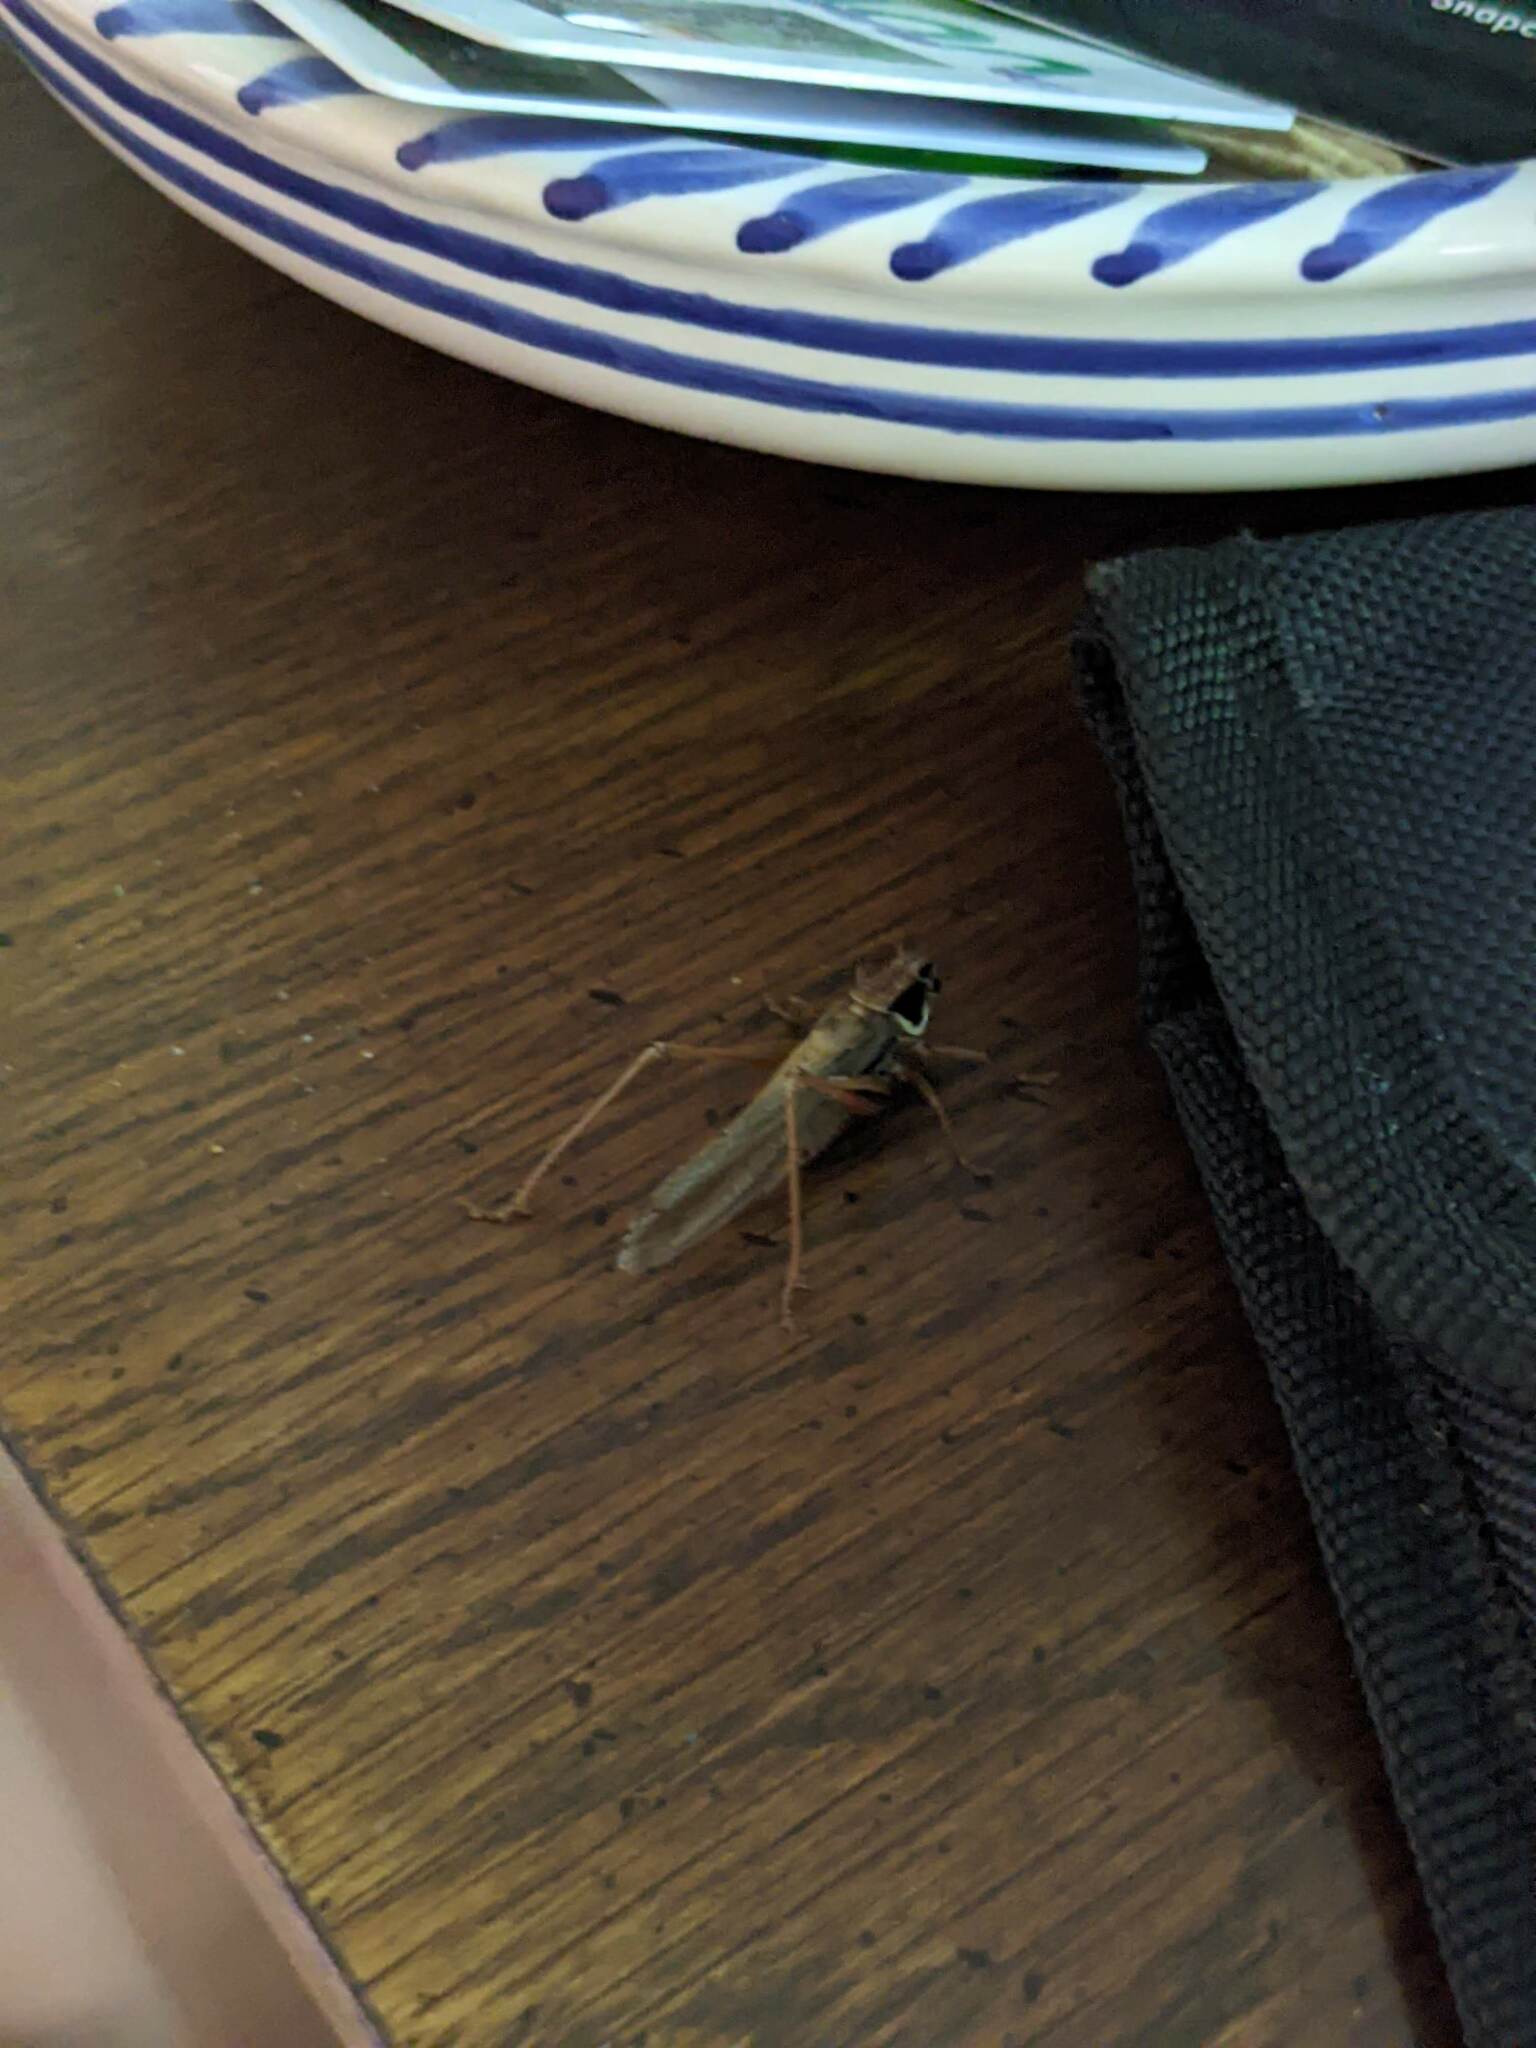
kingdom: Animalia
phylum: Arthropoda
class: Insecta
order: Orthoptera
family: Tettigoniidae
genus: Roeseliana
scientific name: Roeseliana roeselii
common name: Roesel's bush cricket
